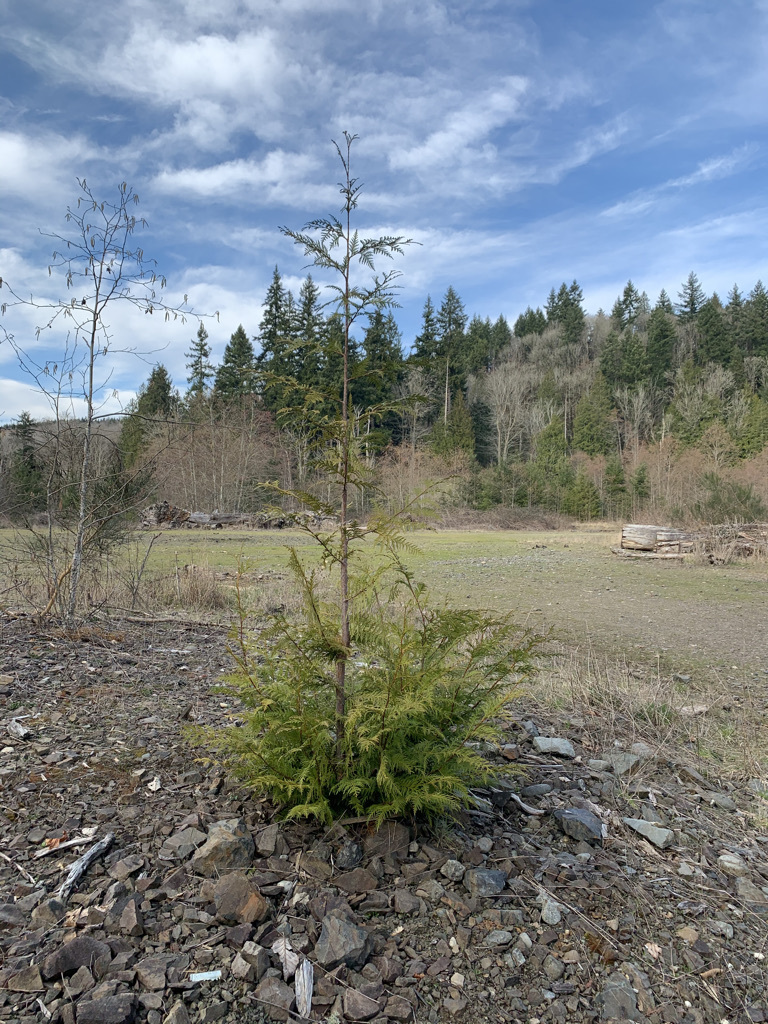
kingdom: Plantae
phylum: Tracheophyta
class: Pinopsida
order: Pinales
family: Cupressaceae
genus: Thuja
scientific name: Thuja plicata
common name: Western red-cedar
